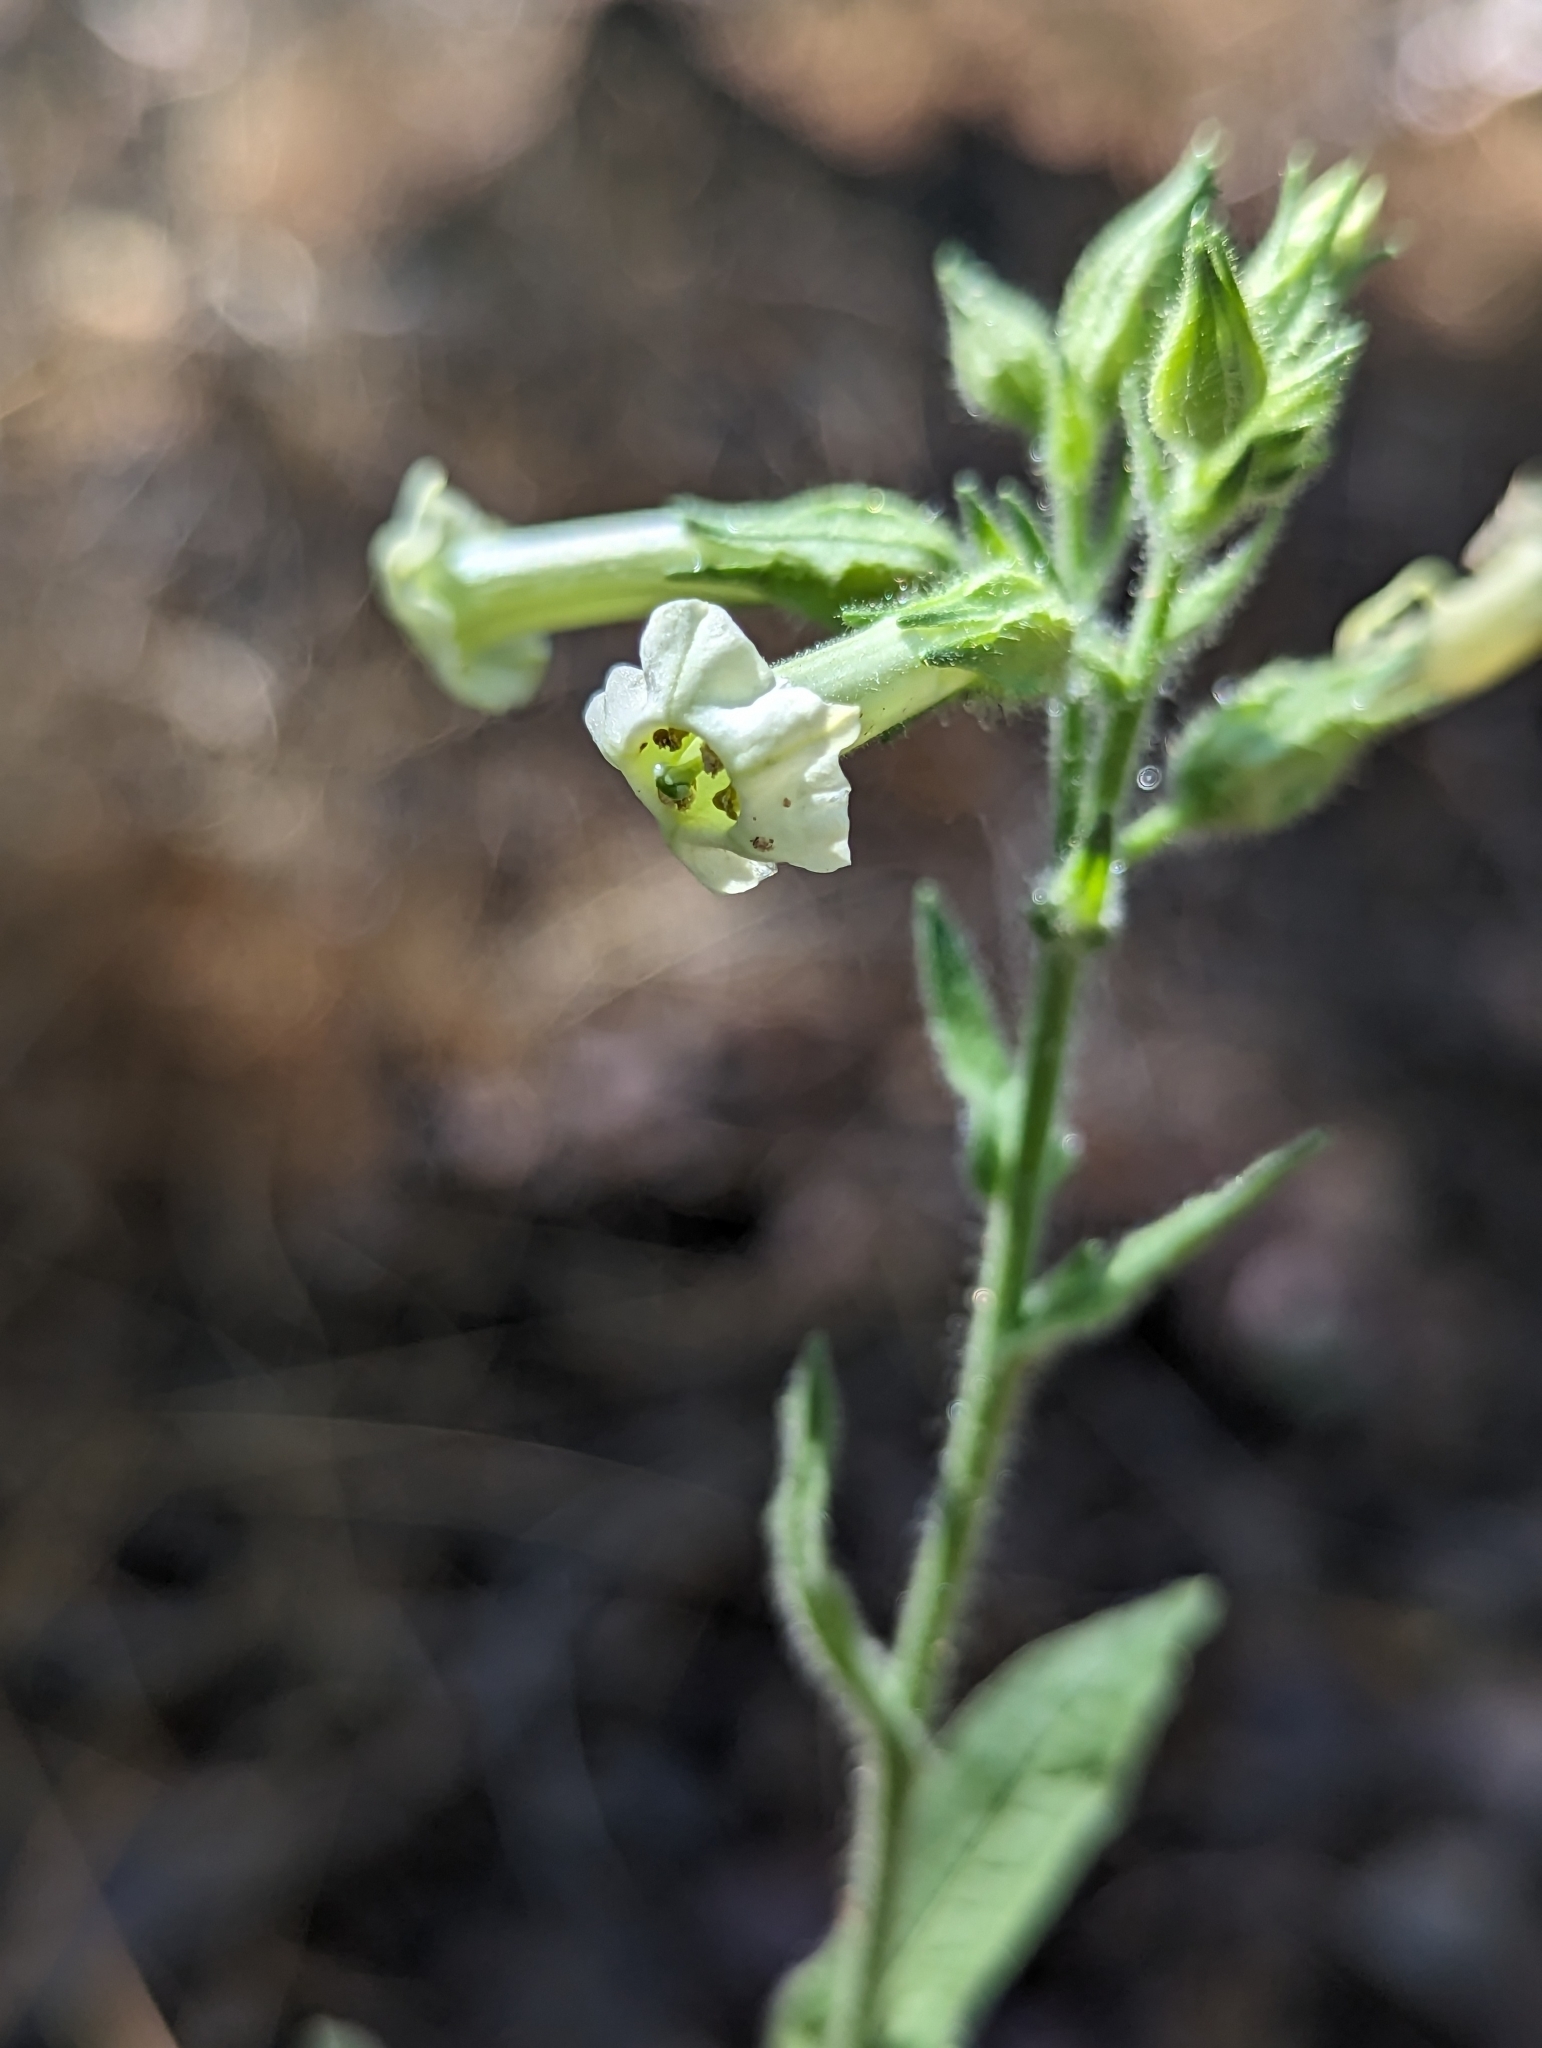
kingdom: Plantae
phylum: Tracheophyta
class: Magnoliopsida
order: Solanales
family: Solanaceae
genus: Nicotiana
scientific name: Nicotiana obtusifolia
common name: Desert tobacco
